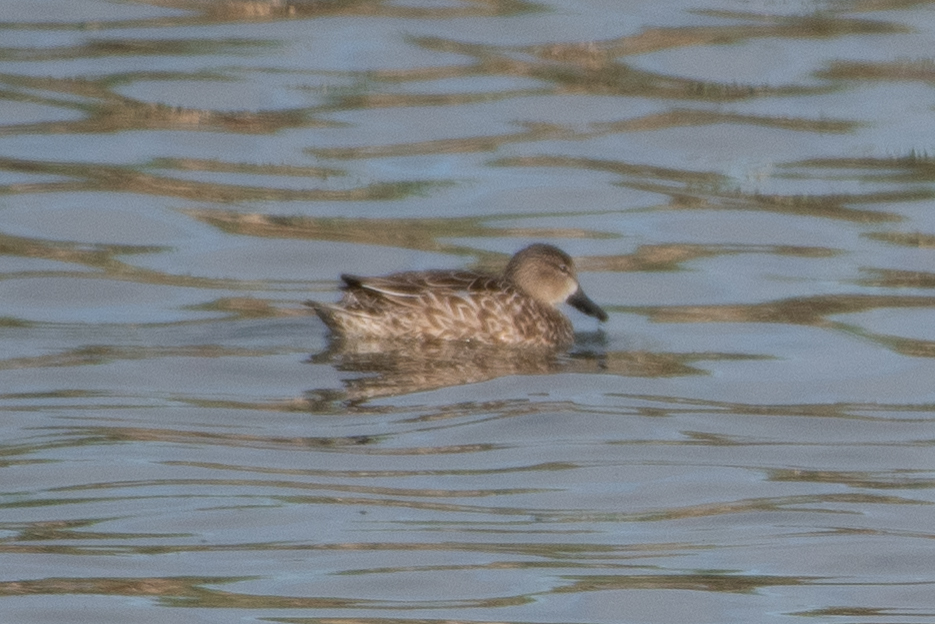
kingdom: Animalia
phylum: Chordata
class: Aves
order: Anseriformes
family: Anatidae
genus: Spatula
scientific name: Spatula discors
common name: Blue-winged teal
